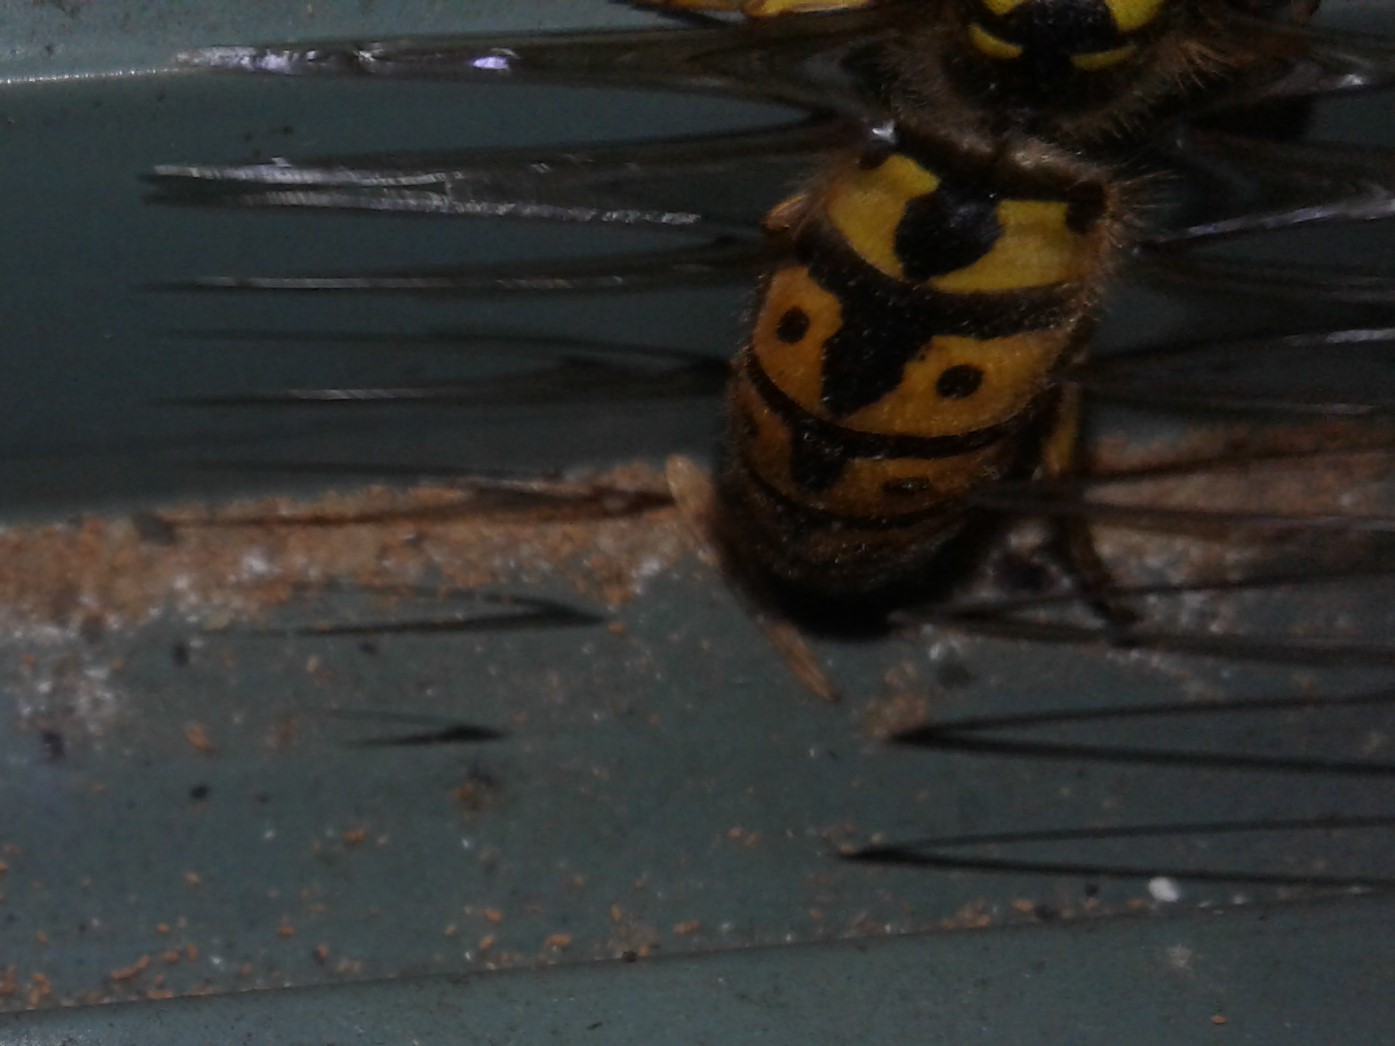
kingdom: Animalia
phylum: Arthropoda
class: Insecta
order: Hymenoptera
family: Vespidae
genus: Vespula
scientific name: Vespula germanica
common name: German wasp
